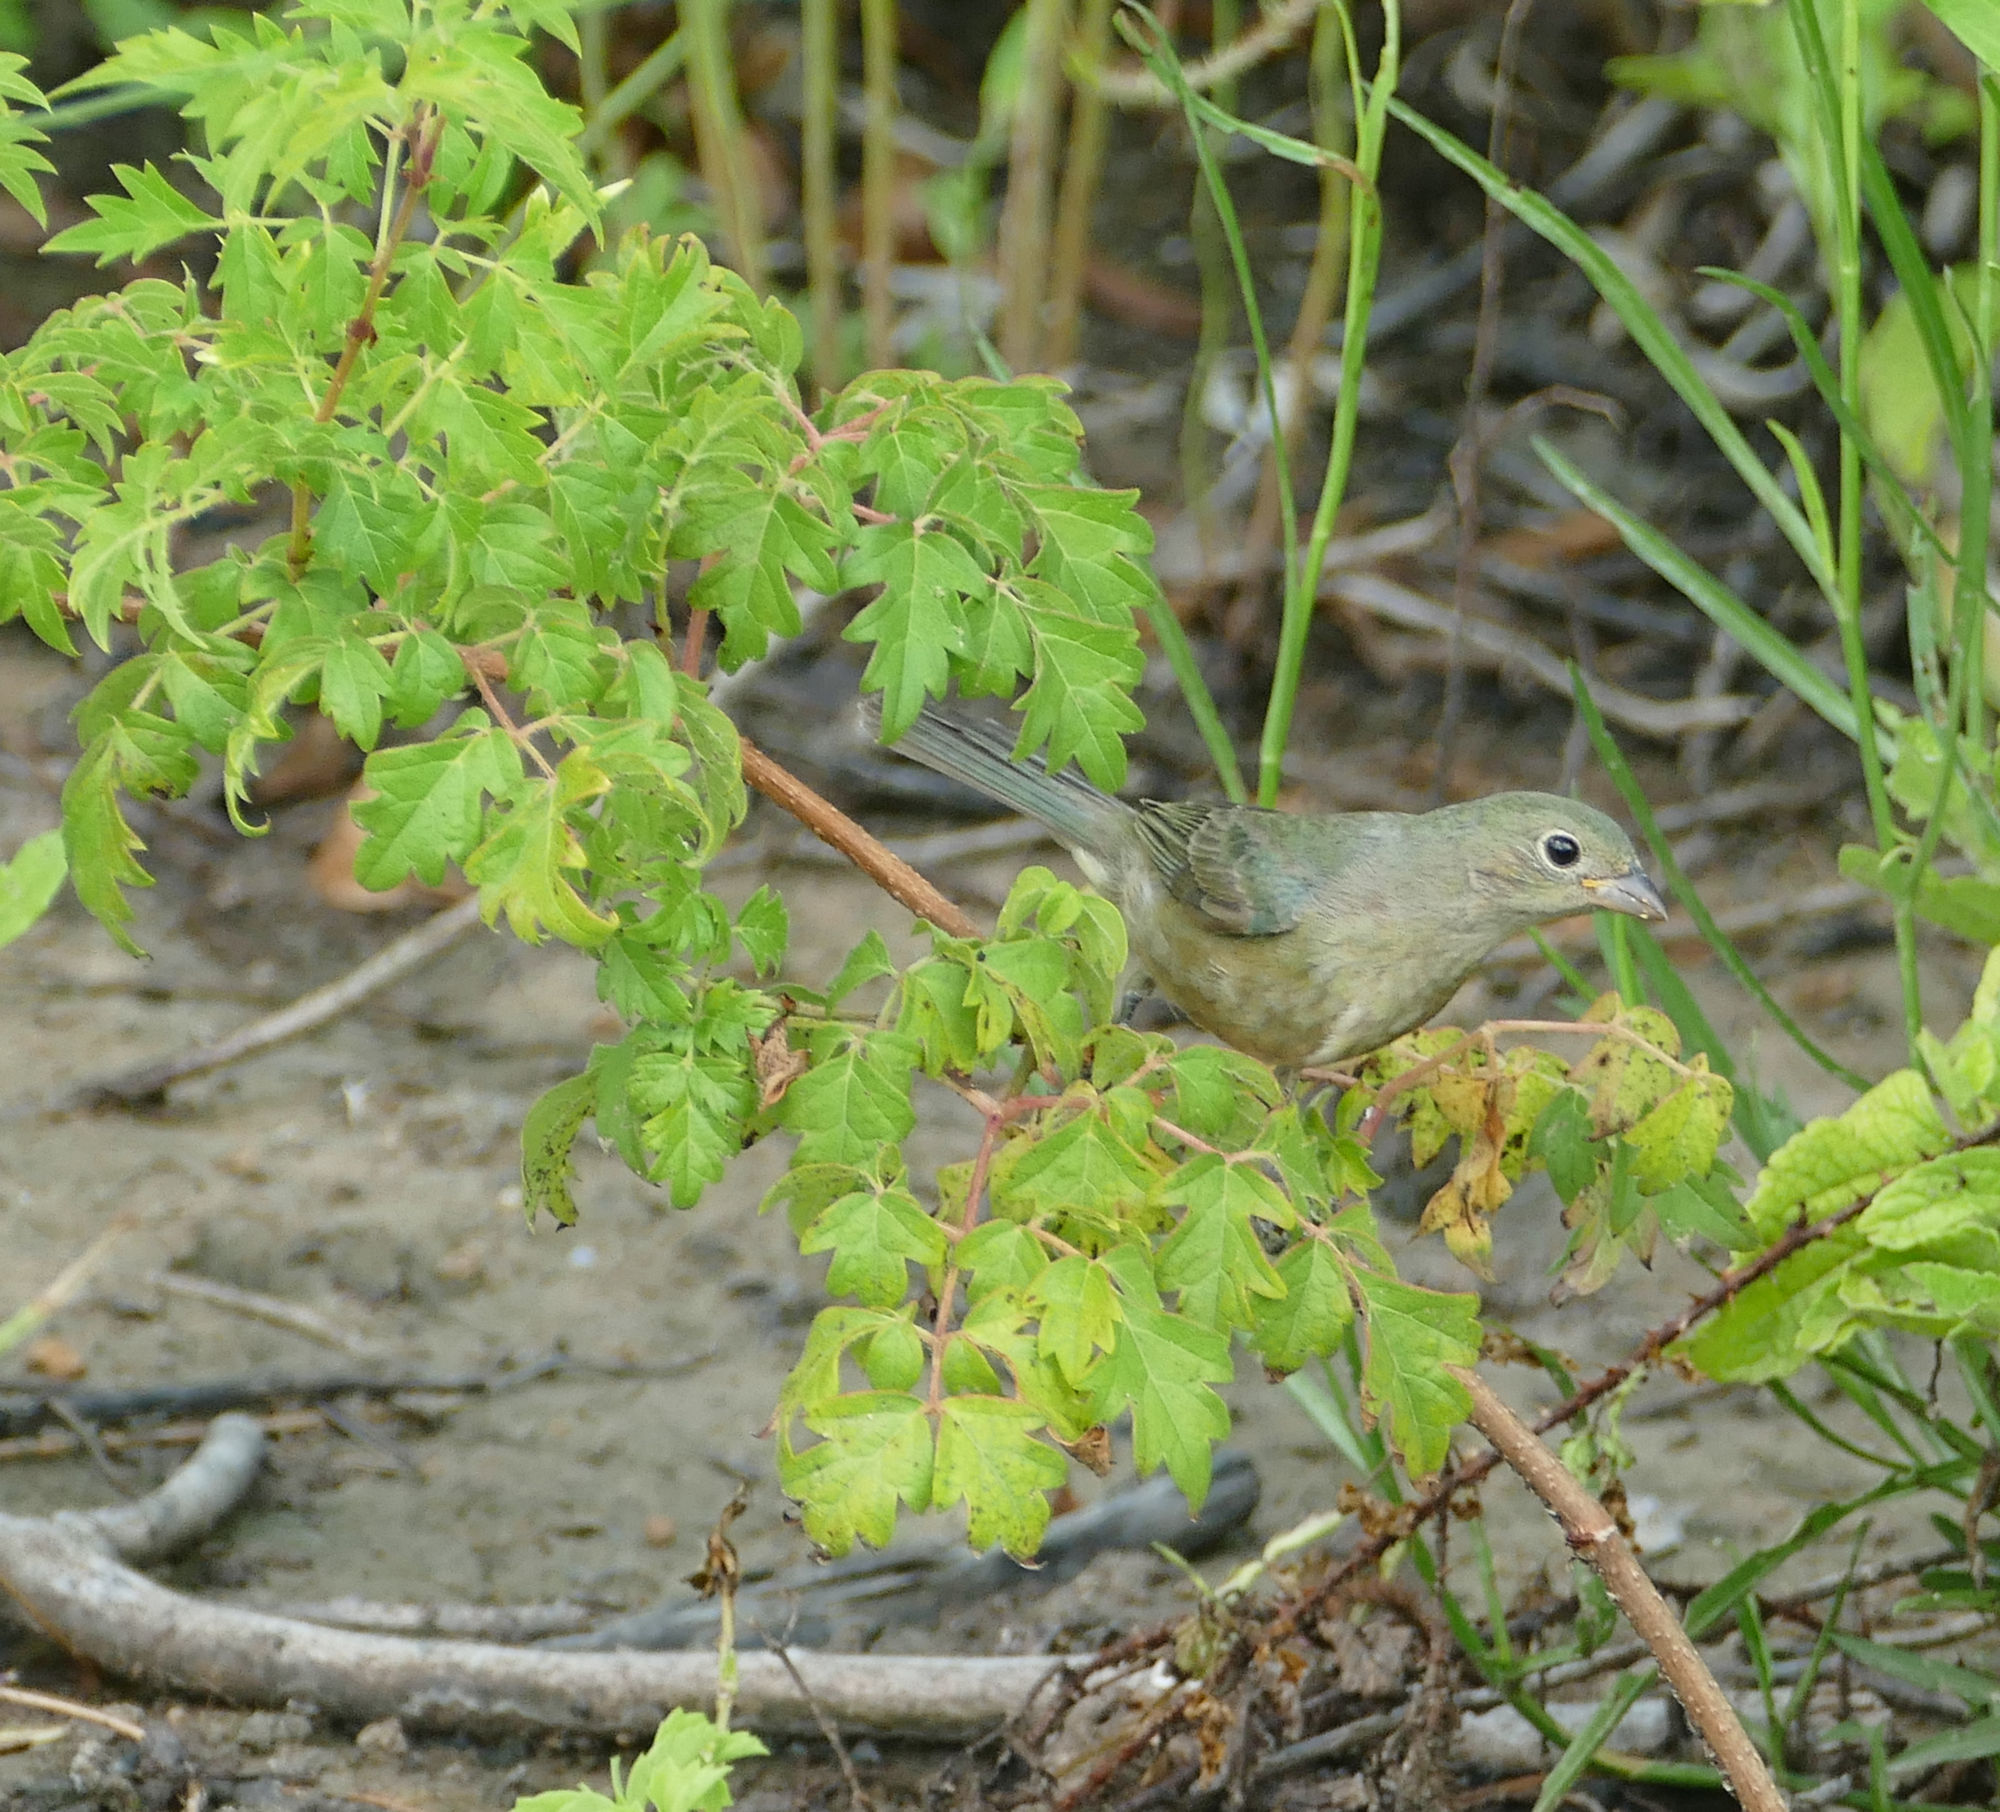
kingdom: Plantae
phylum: Tracheophyta
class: Magnoliopsida
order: Vitales
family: Vitaceae
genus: Nekemias
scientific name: Nekemias arborea
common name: Peppervine
